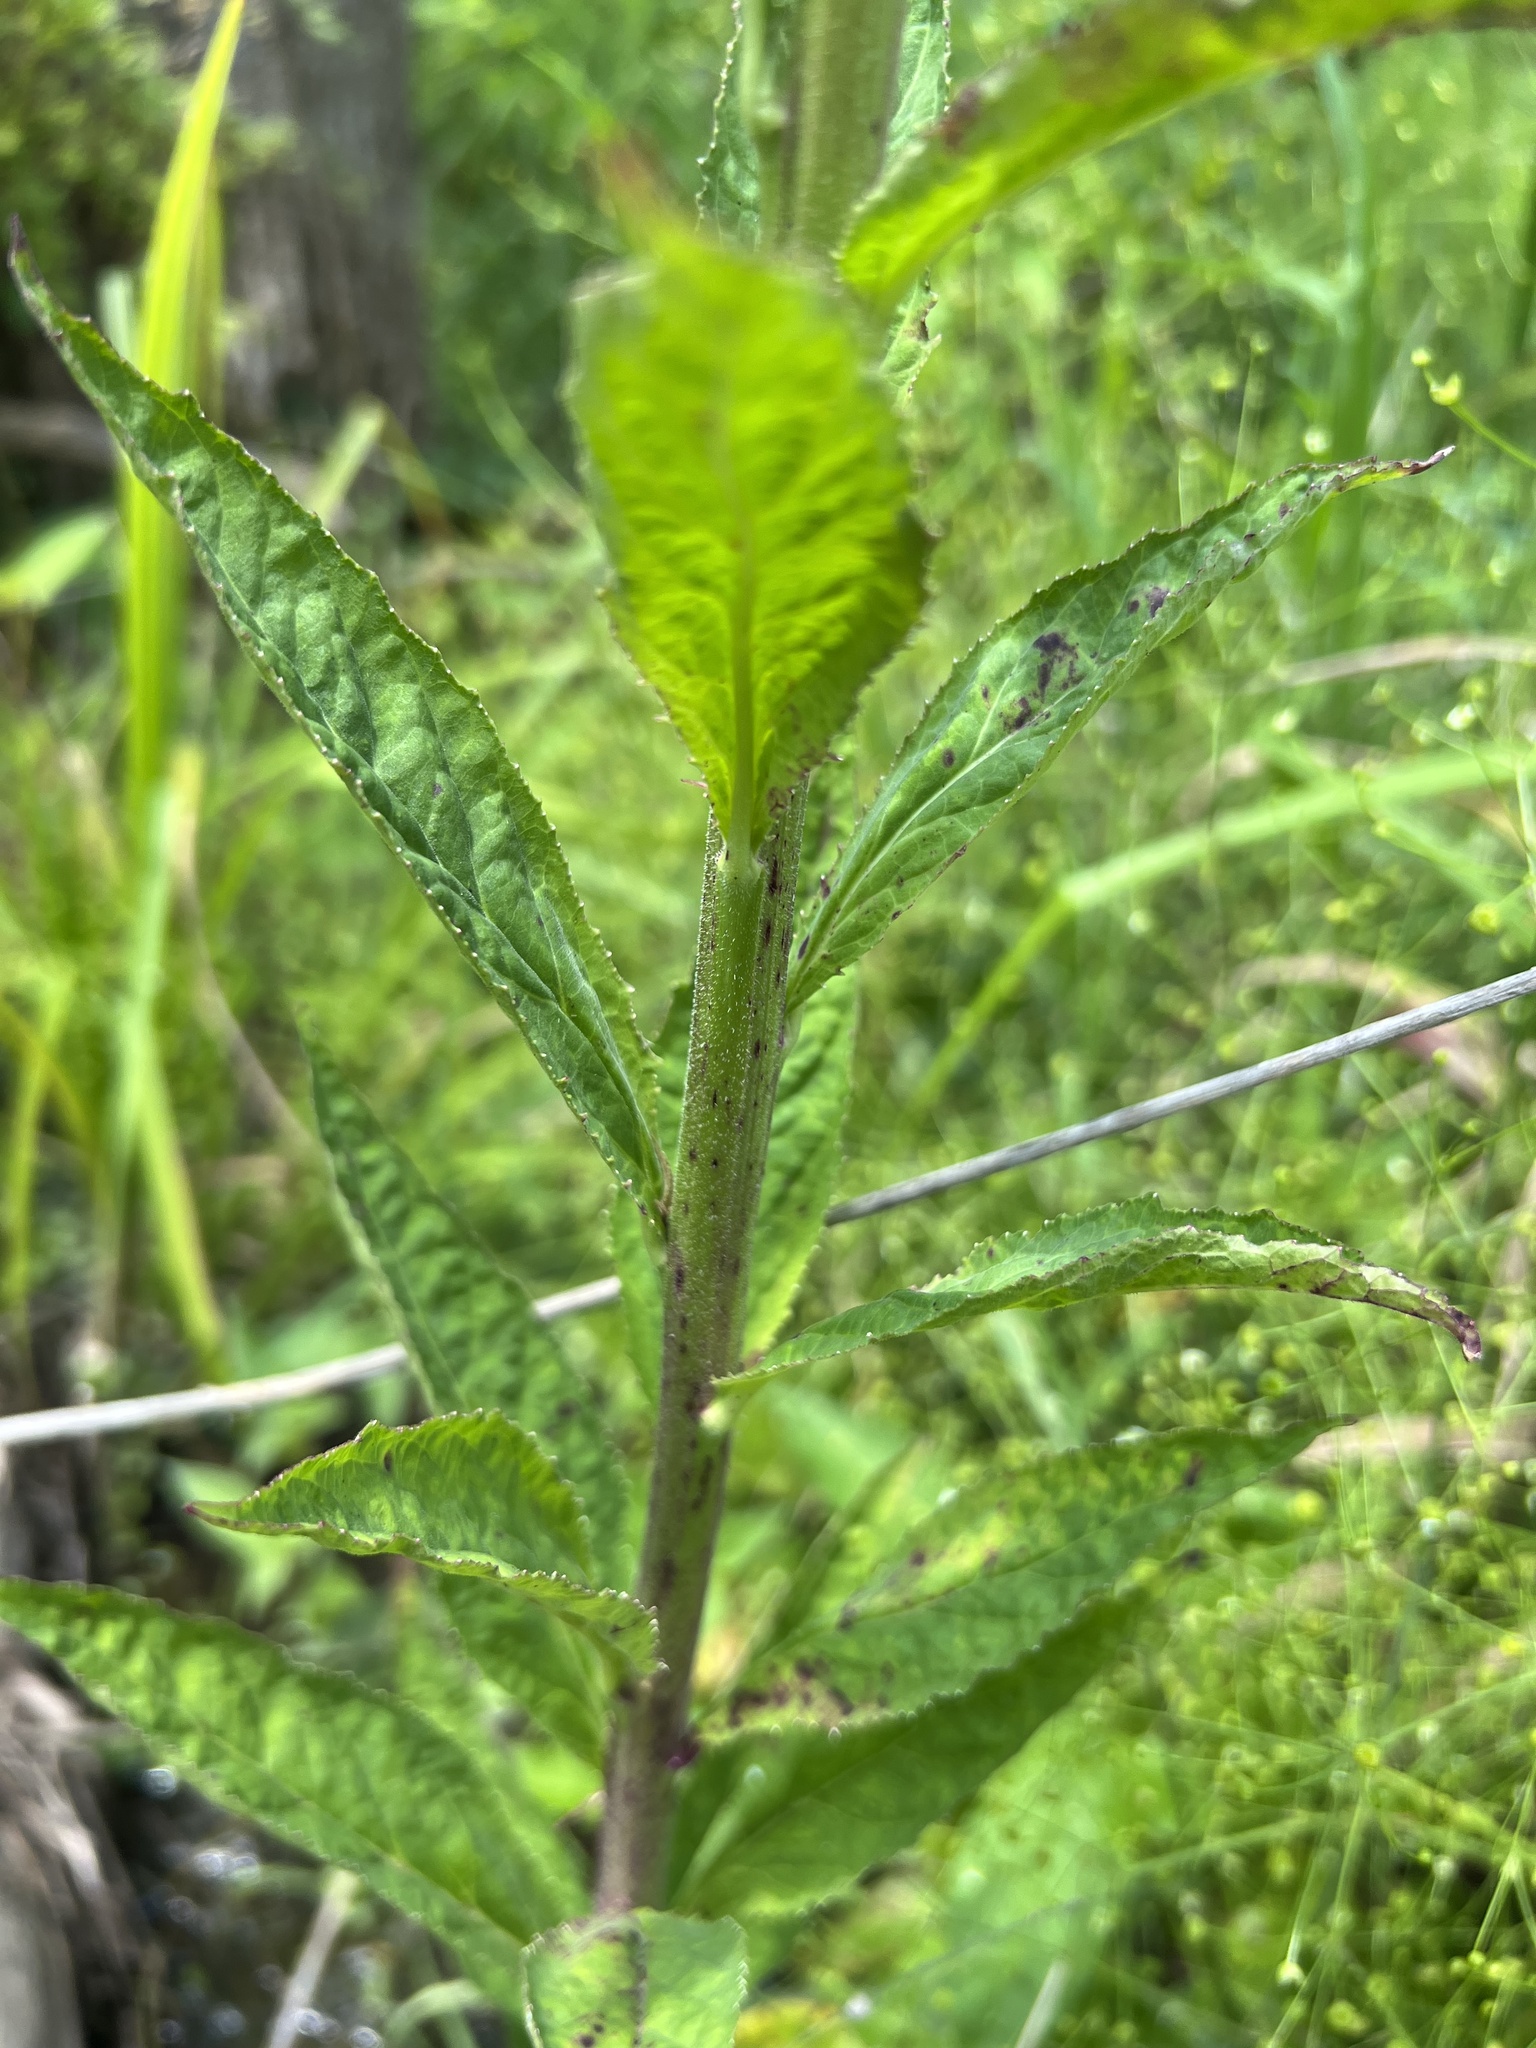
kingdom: Plantae
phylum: Tracheophyta
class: Magnoliopsida
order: Asterales
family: Campanulaceae
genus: Lobelia
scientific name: Lobelia cardinalis
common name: Cardinal flower
